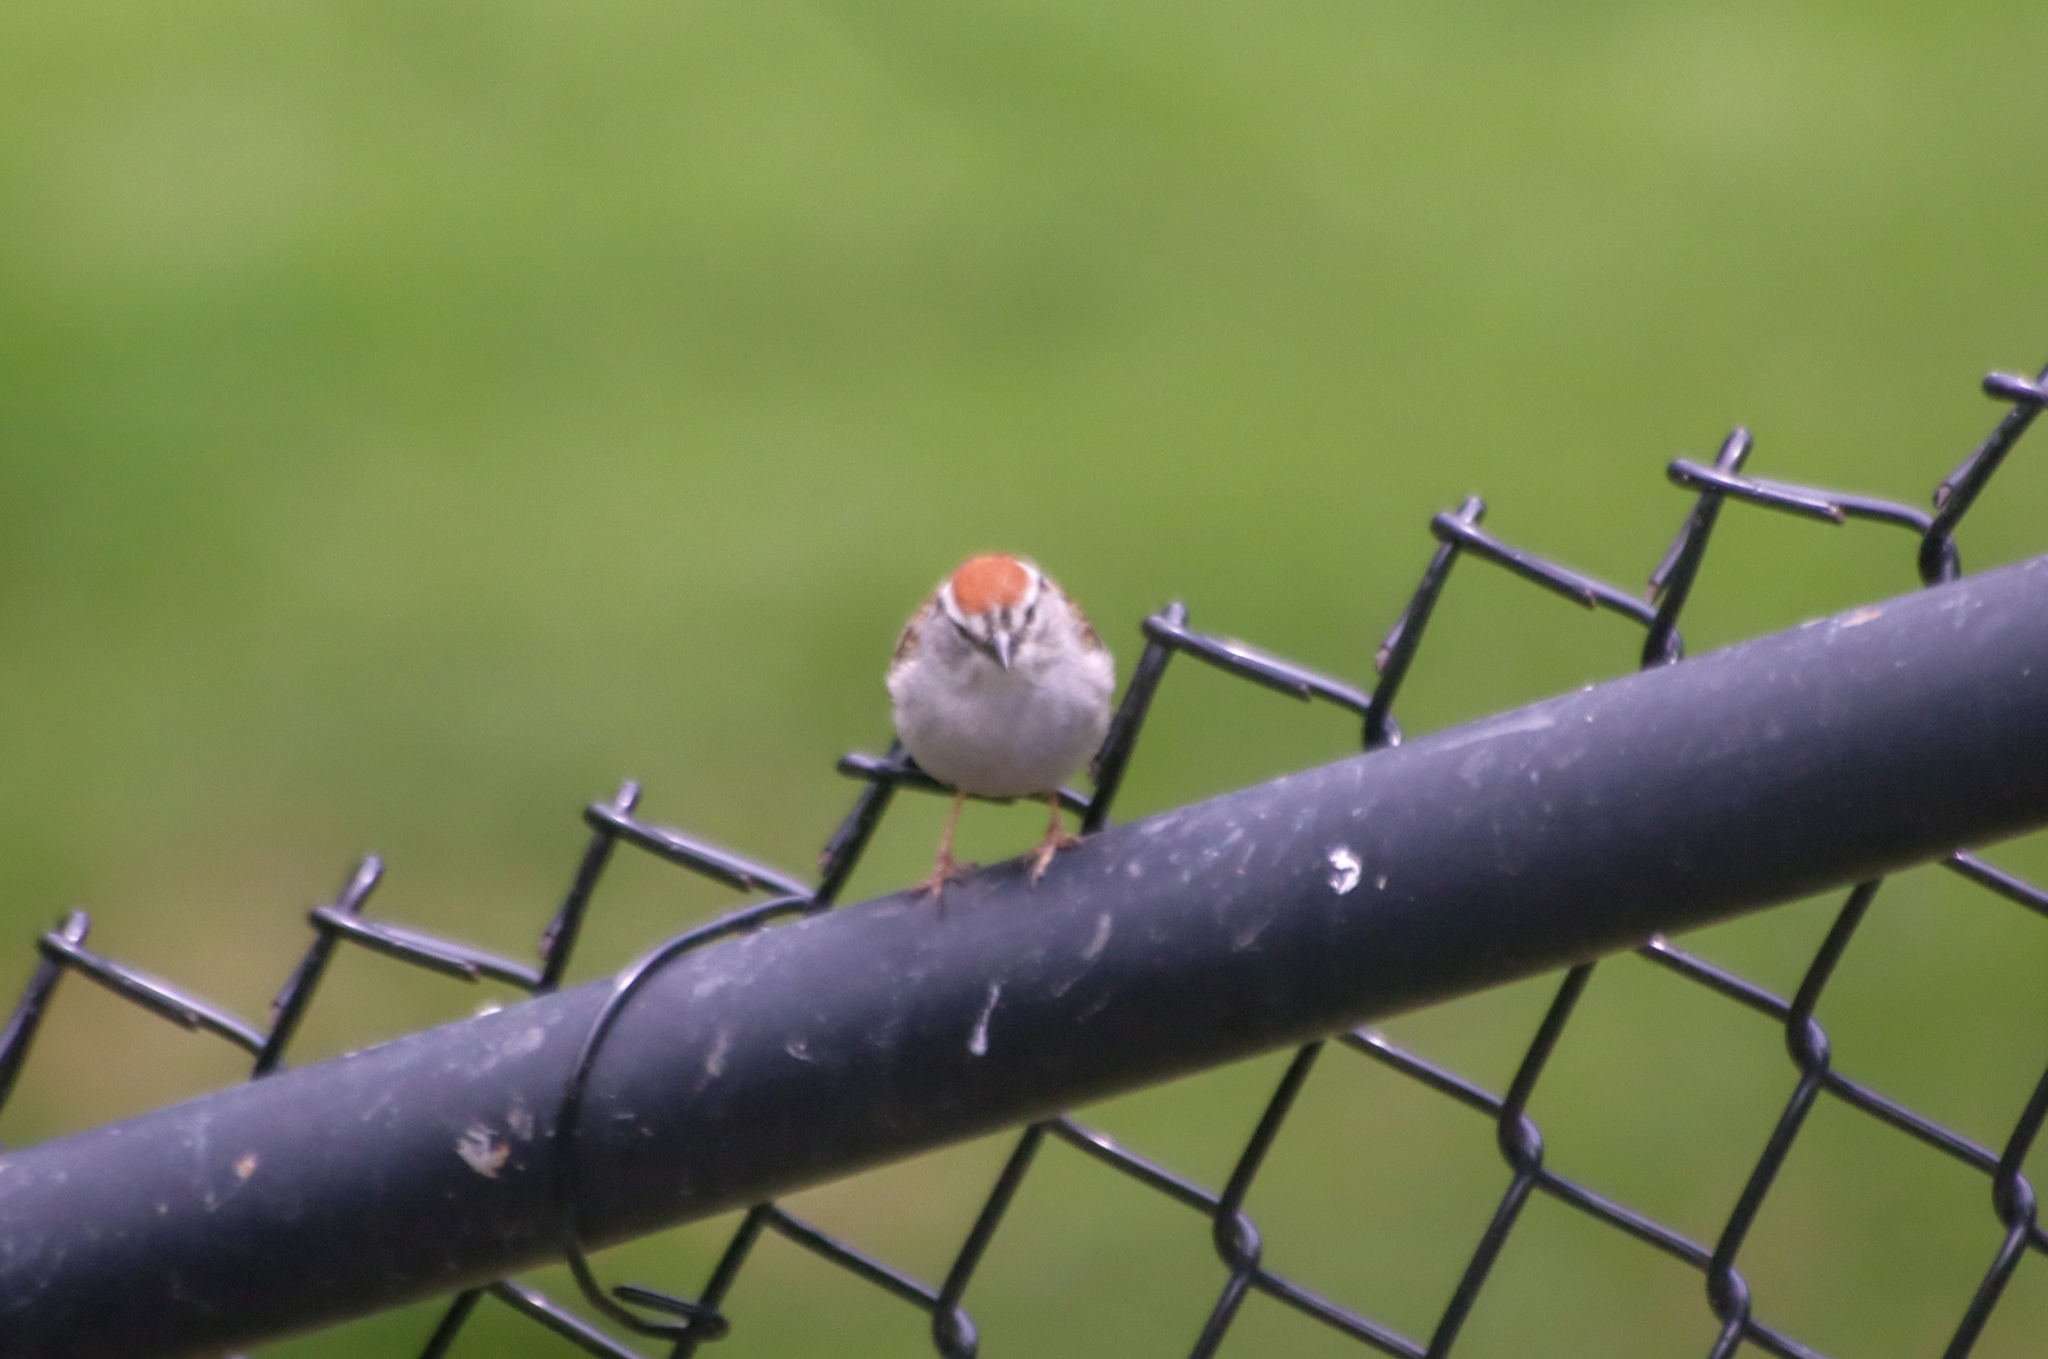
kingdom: Animalia
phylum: Chordata
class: Aves
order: Passeriformes
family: Passerellidae
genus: Spizella
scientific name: Spizella passerina
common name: Chipping sparrow
